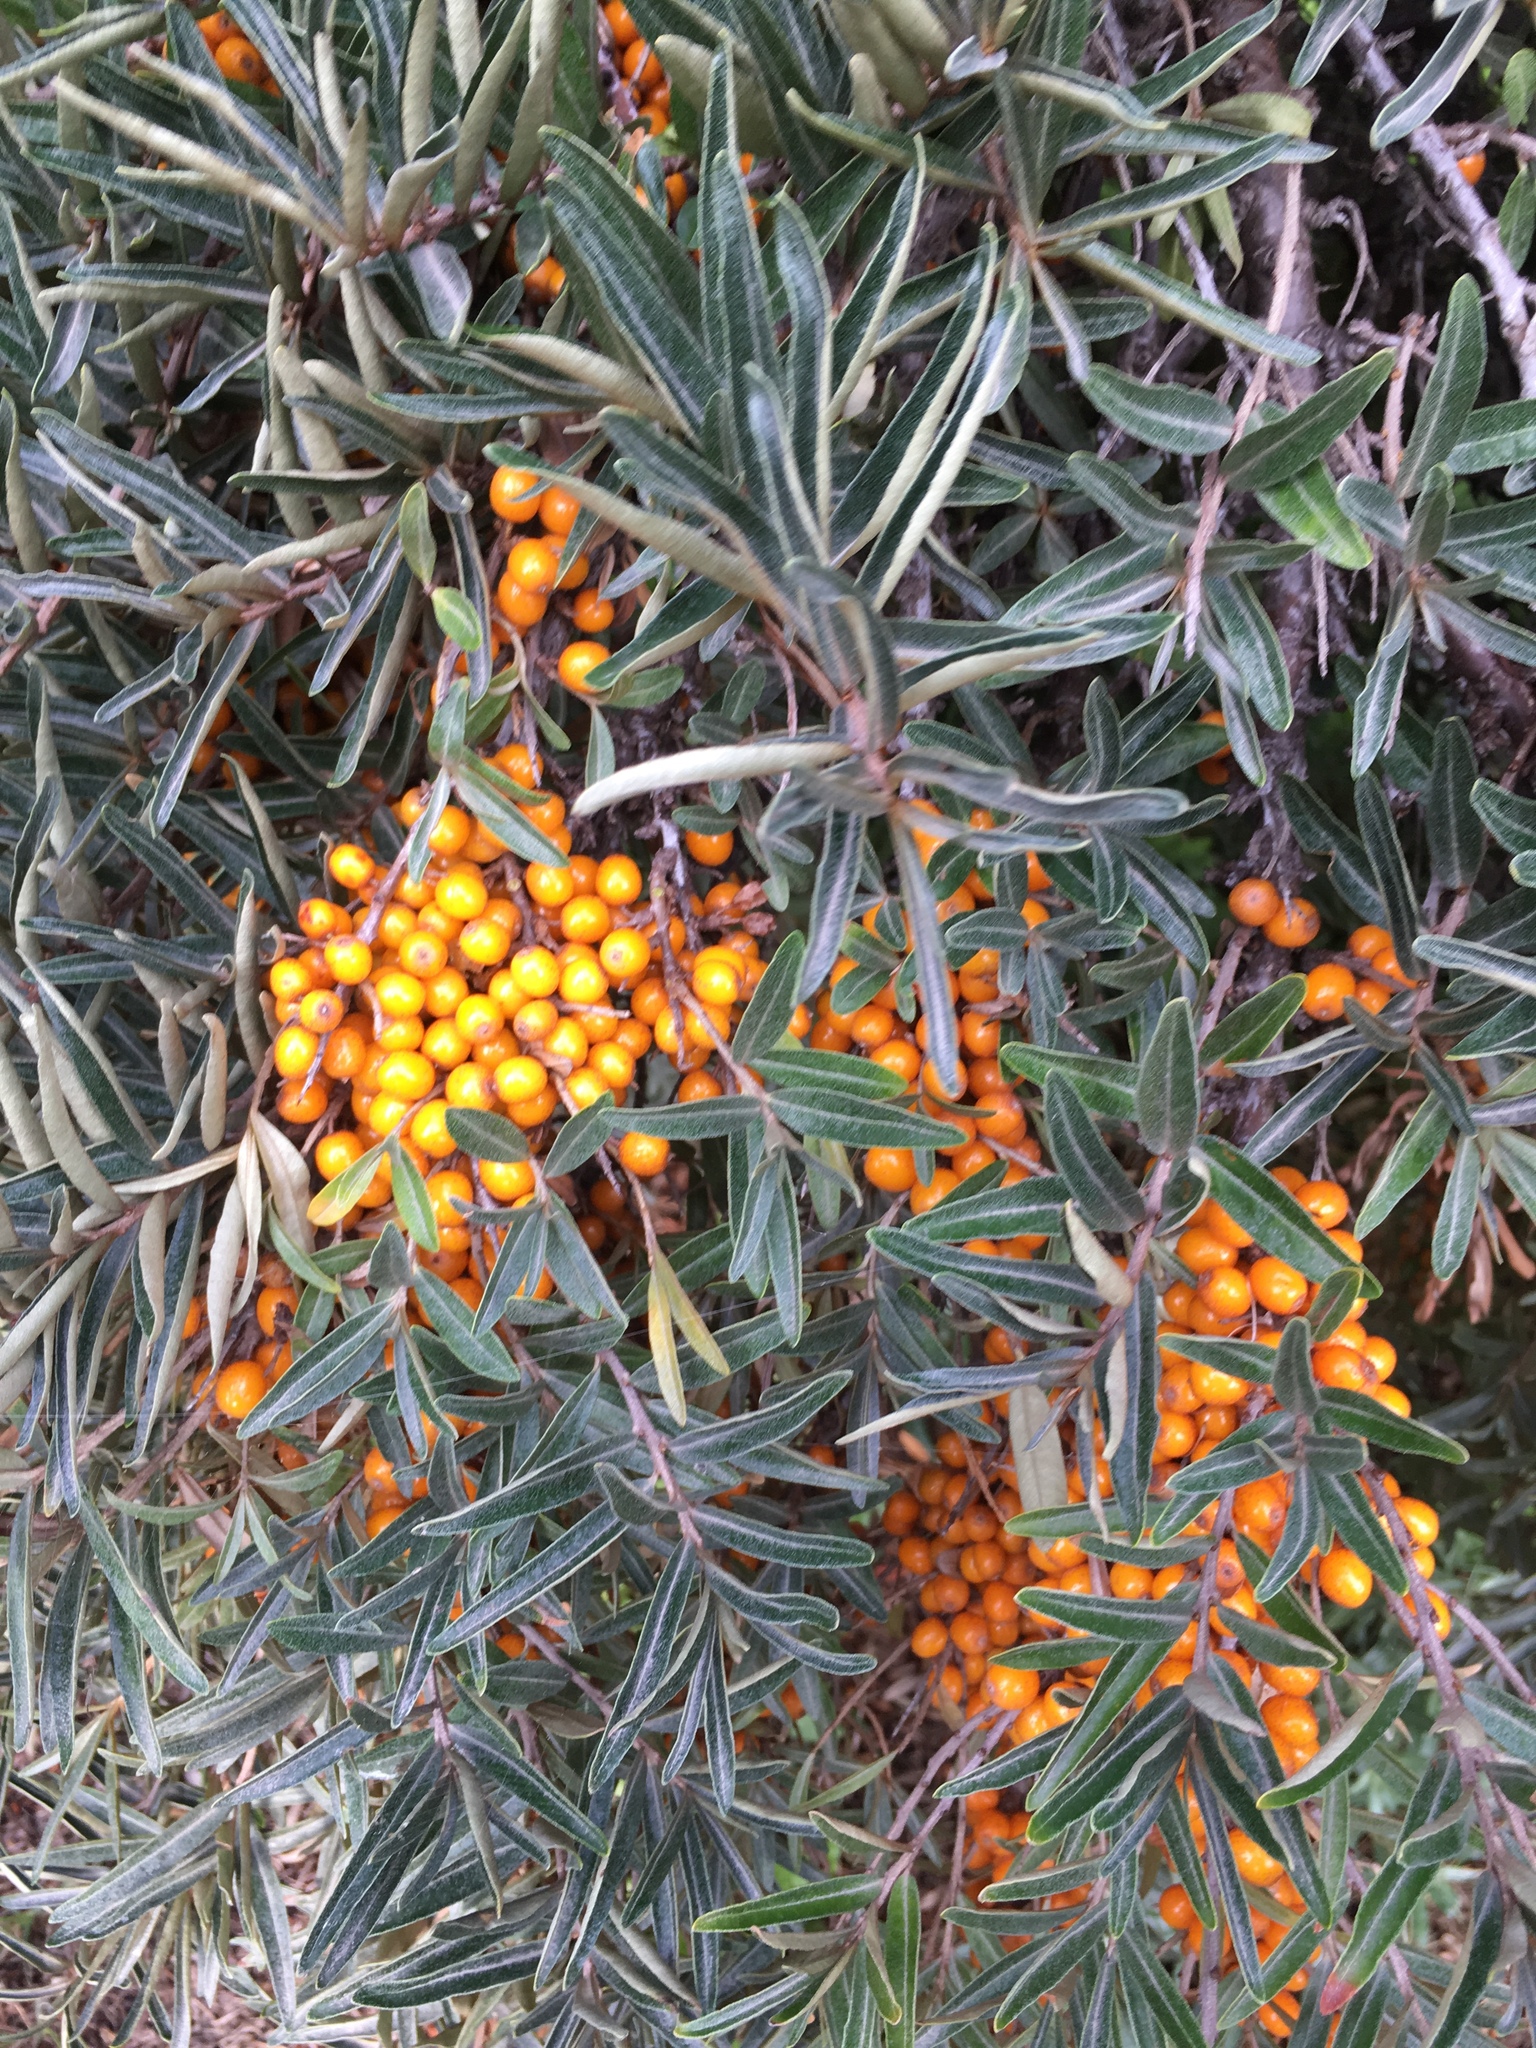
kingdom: Plantae
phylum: Tracheophyta
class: Magnoliopsida
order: Rosales
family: Elaeagnaceae
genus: Hippophae
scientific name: Hippophae rhamnoides
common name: Sea-buckthorn
